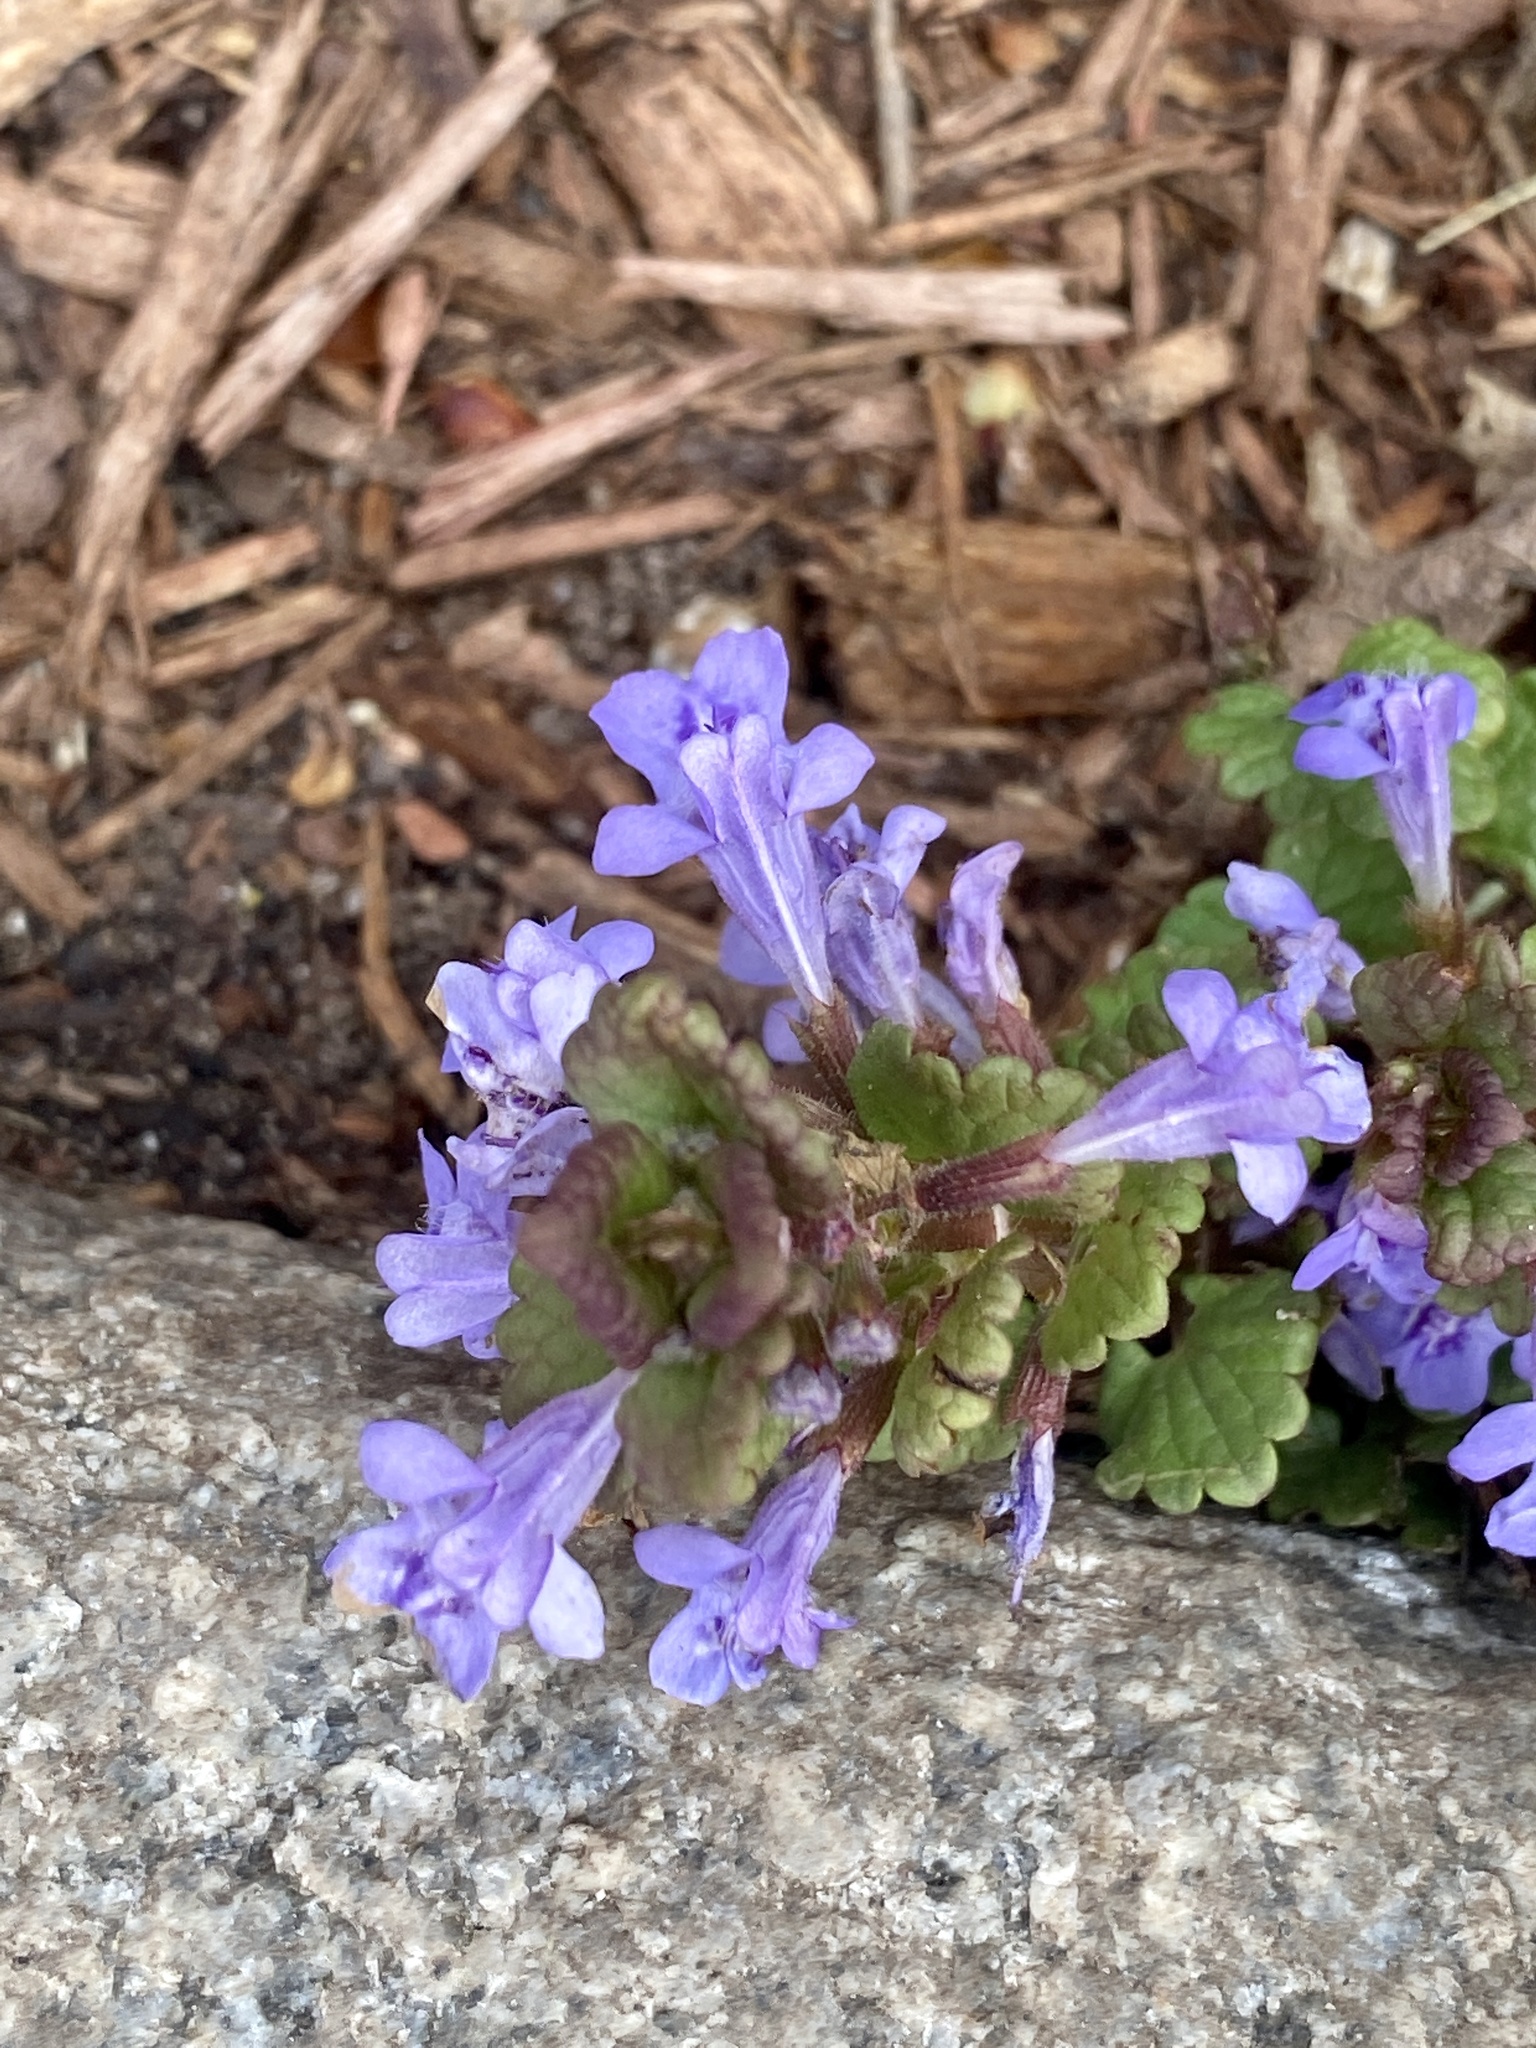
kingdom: Plantae
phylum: Tracheophyta
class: Magnoliopsida
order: Lamiales
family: Lamiaceae
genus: Glechoma
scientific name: Glechoma hederacea
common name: Ground ivy
